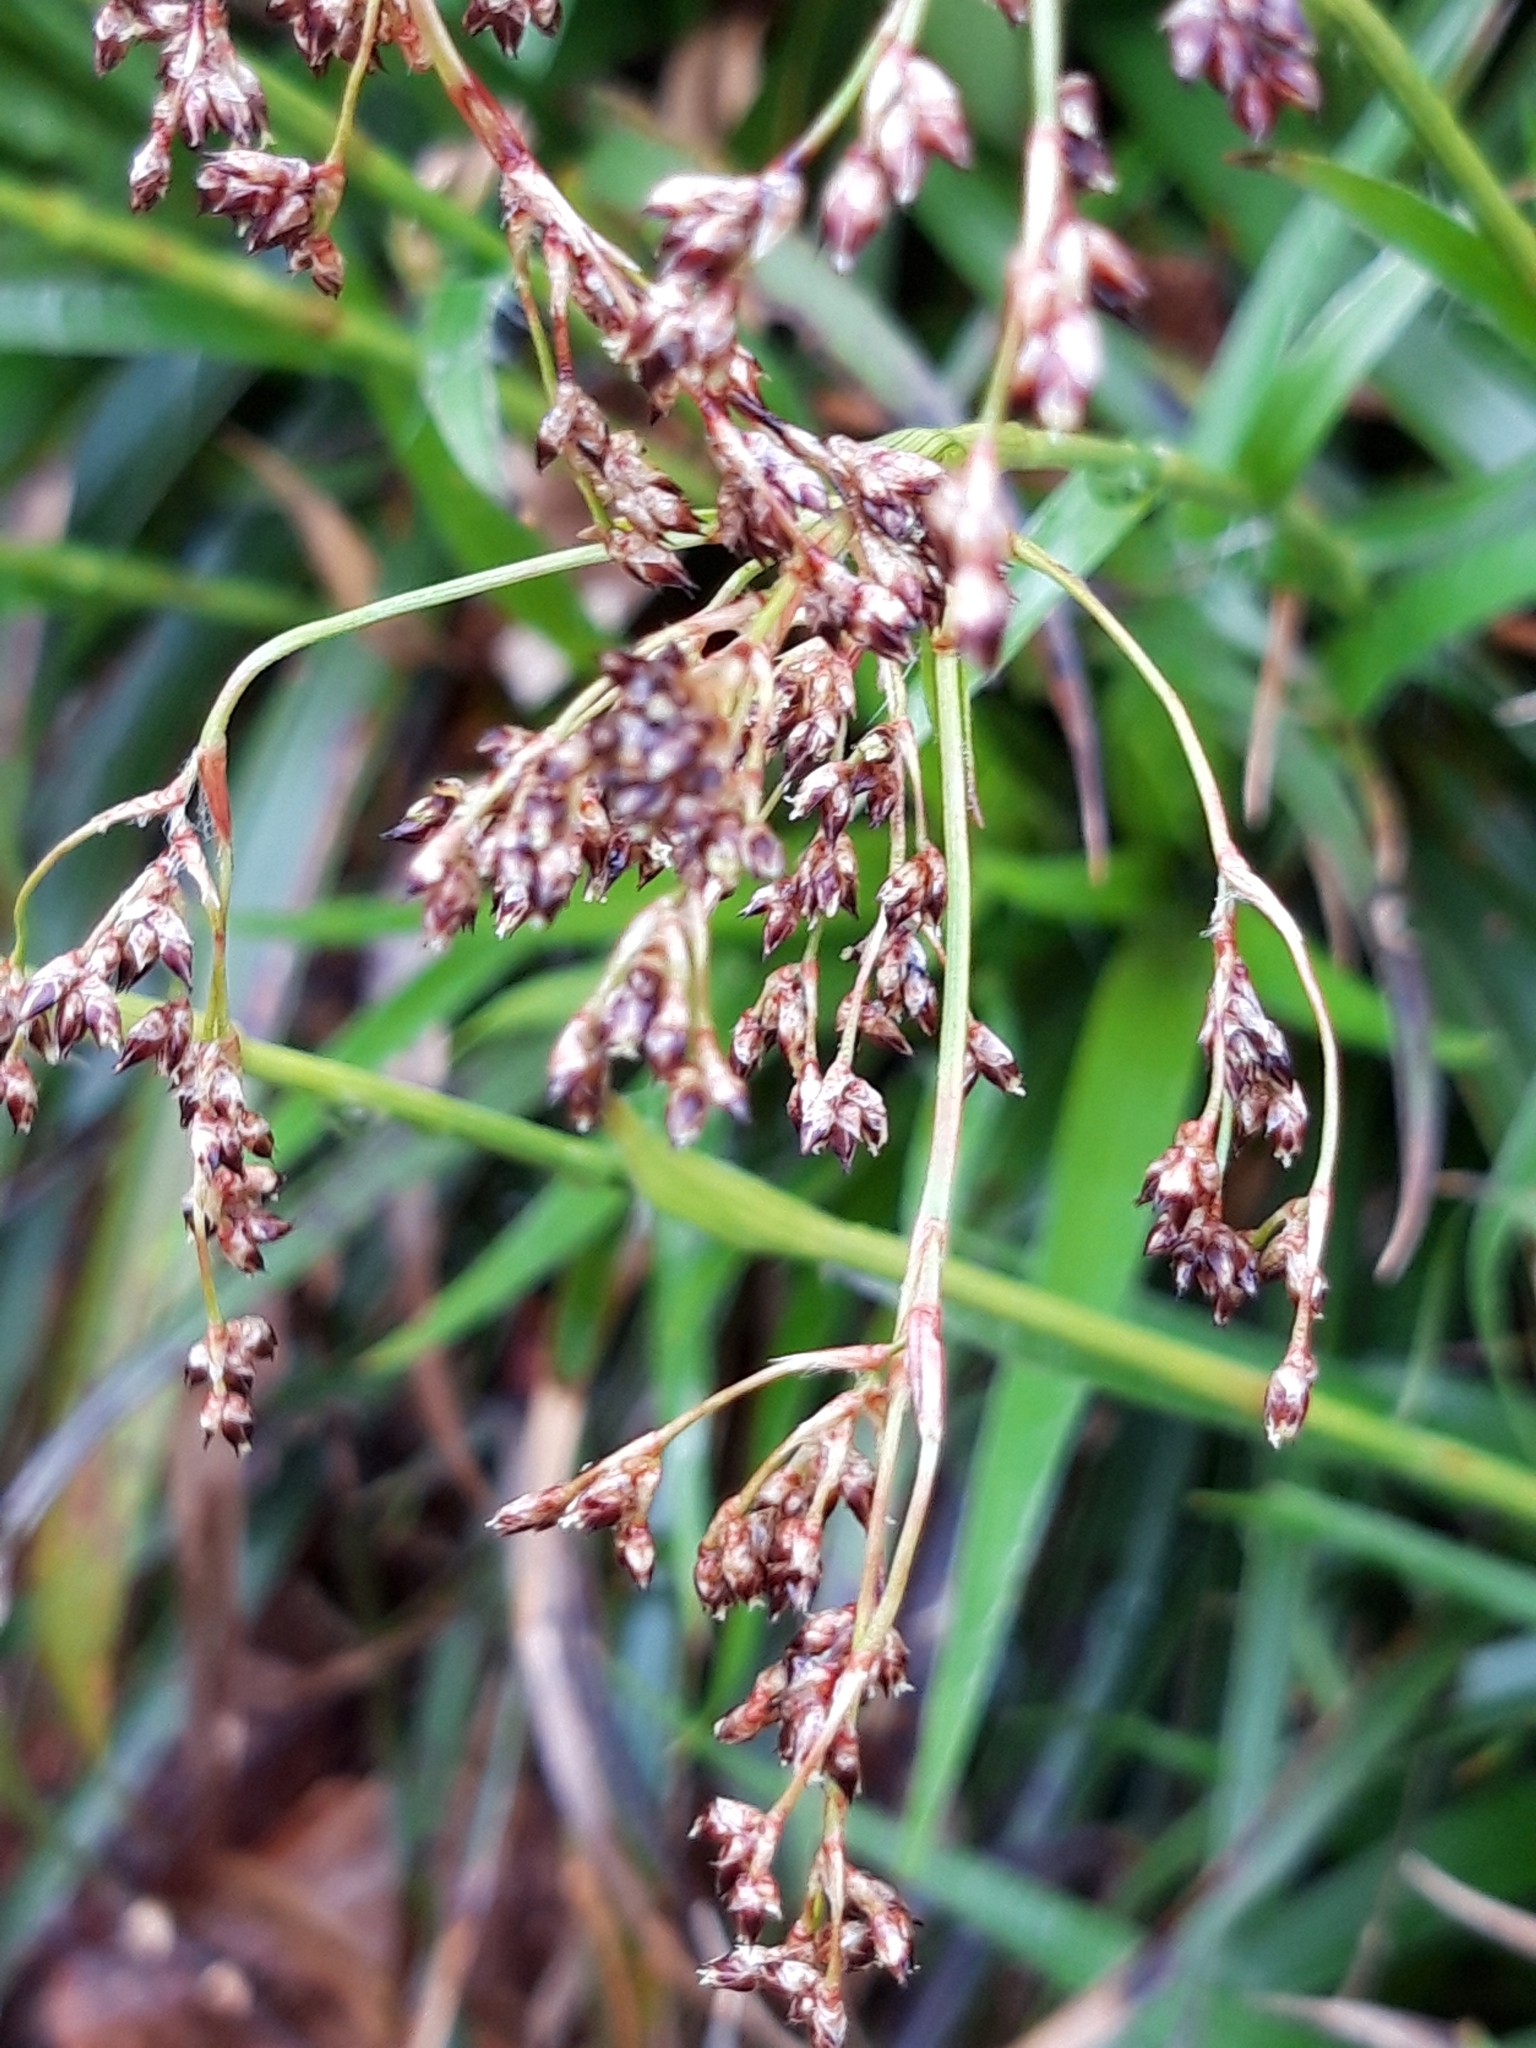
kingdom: Plantae
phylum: Tracheophyta
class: Liliopsida
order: Poales
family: Juncaceae
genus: Luzula
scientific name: Luzula sylvatica
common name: Great wood-rush
